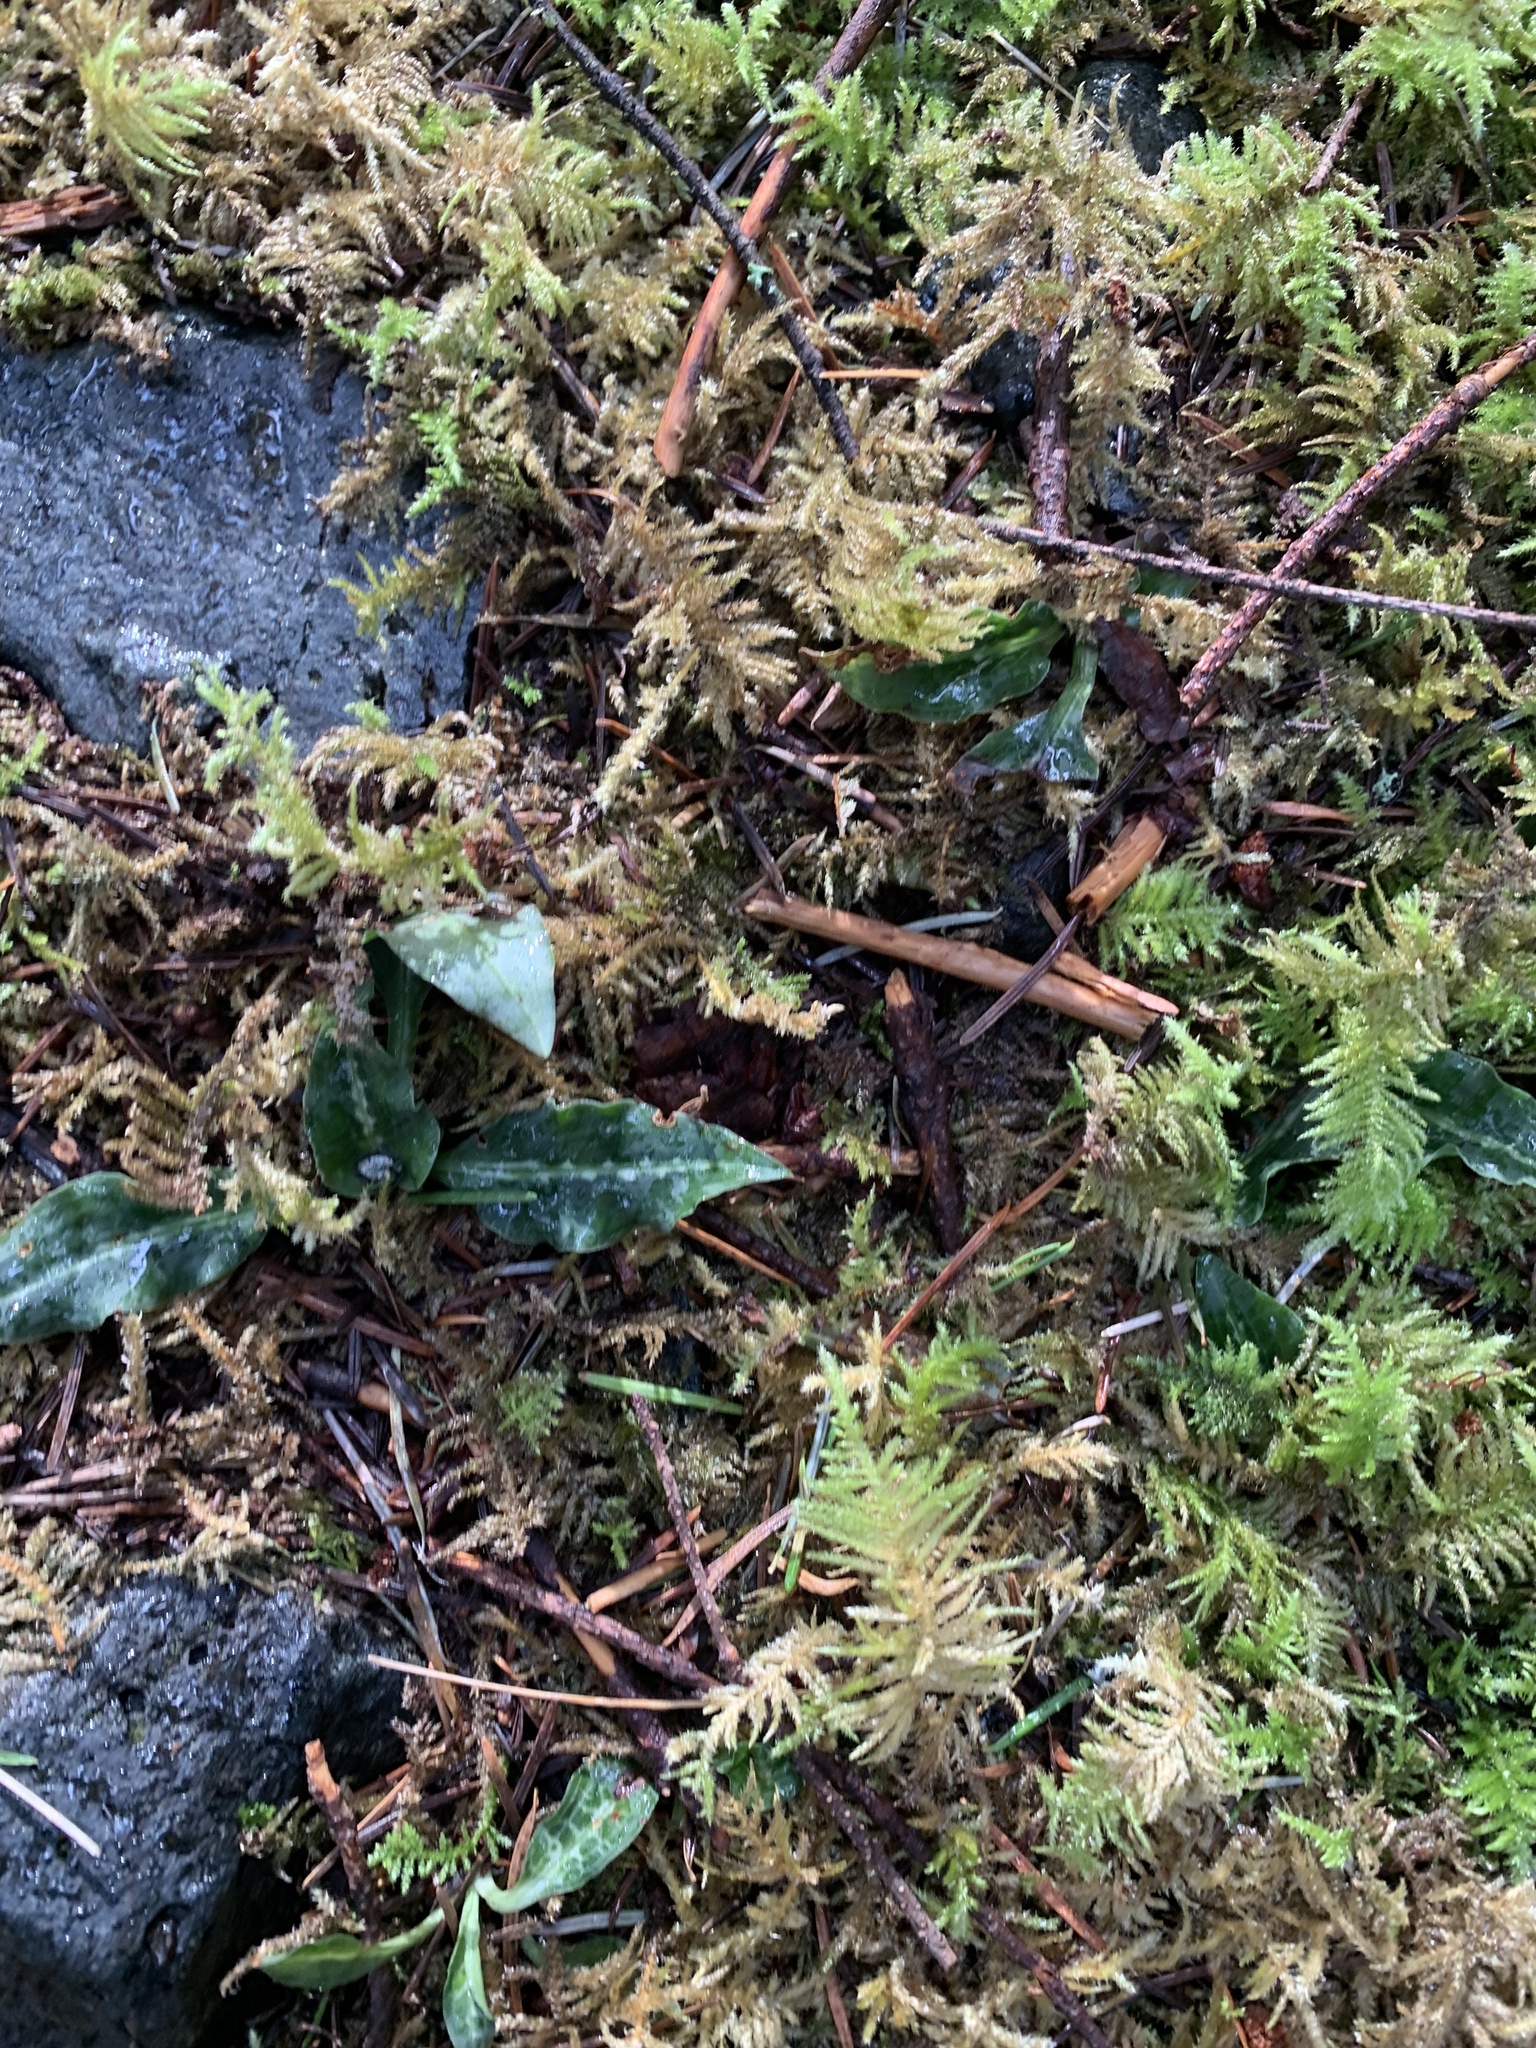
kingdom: Plantae
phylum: Tracheophyta
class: Liliopsida
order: Asparagales
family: Orchidaceae
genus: Goodyera
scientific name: Goodyera oblongifolia
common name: Giant rattlesnake-plantain
